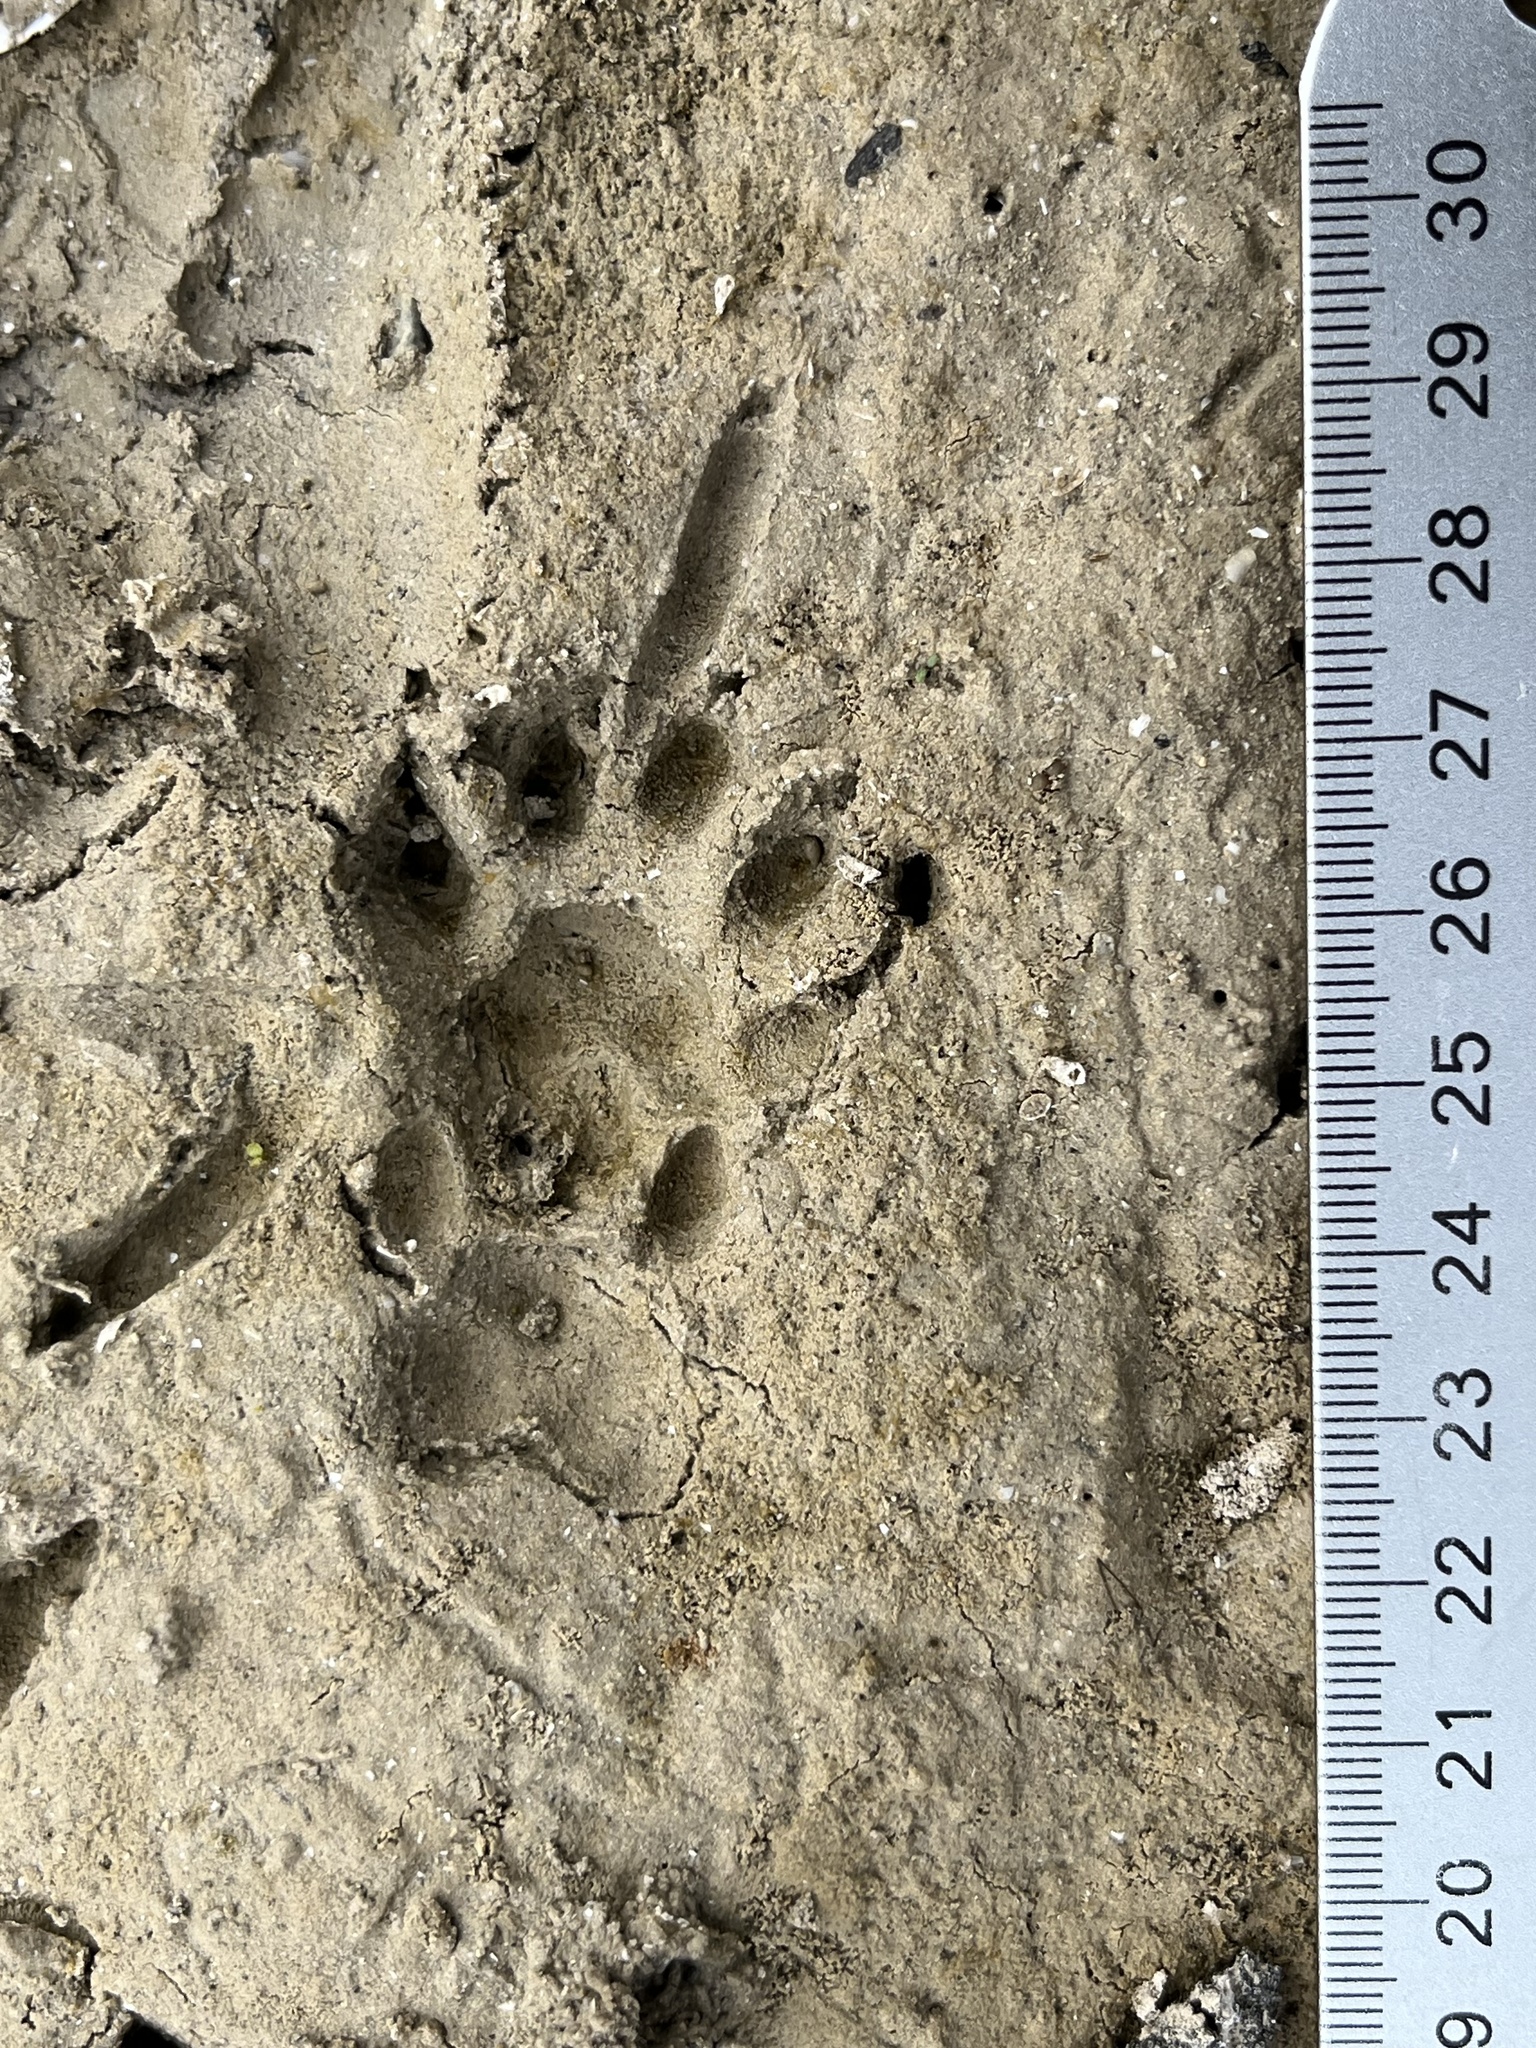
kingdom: Animalia
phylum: Chordata
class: Mammalia
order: Carnivora
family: Procyonidae
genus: Bassariscus
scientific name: Bassariscus astutus
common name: Ringtail
